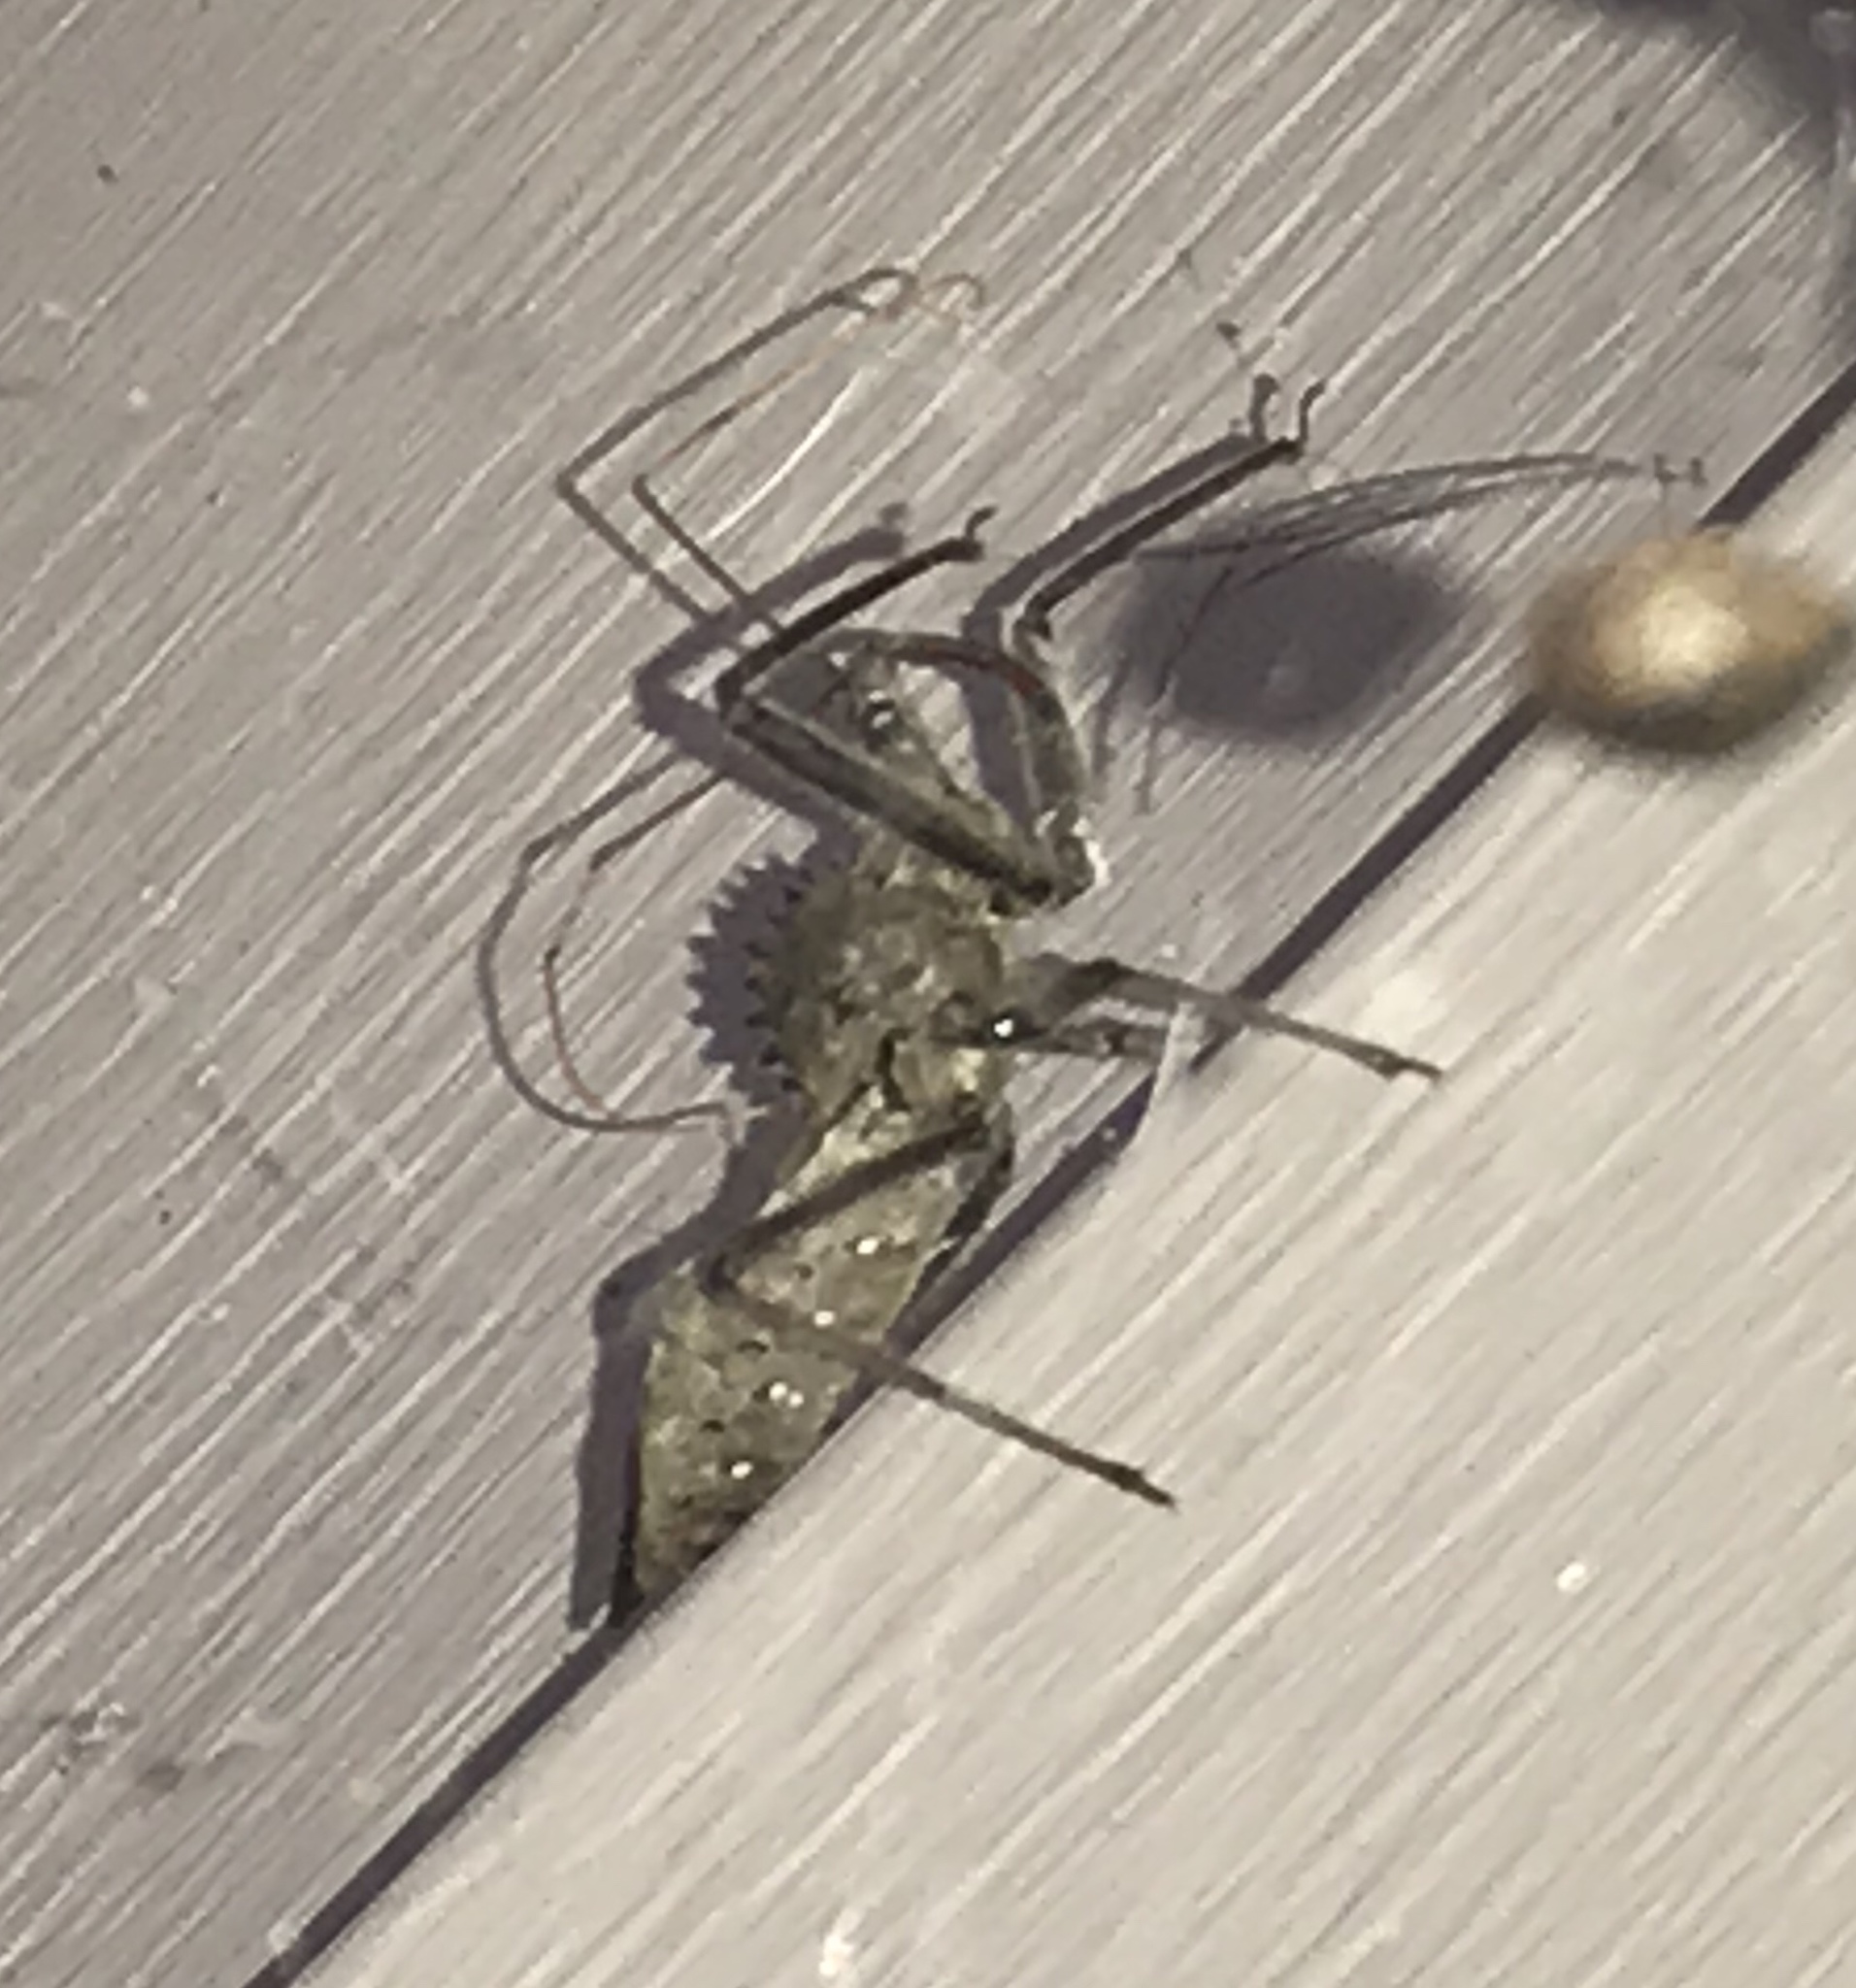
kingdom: Animalia
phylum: Arthropoda
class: Insecta
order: Hemiptera
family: Reduviidae
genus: Arilus
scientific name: Arilus cristatus
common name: North american wheel bug
